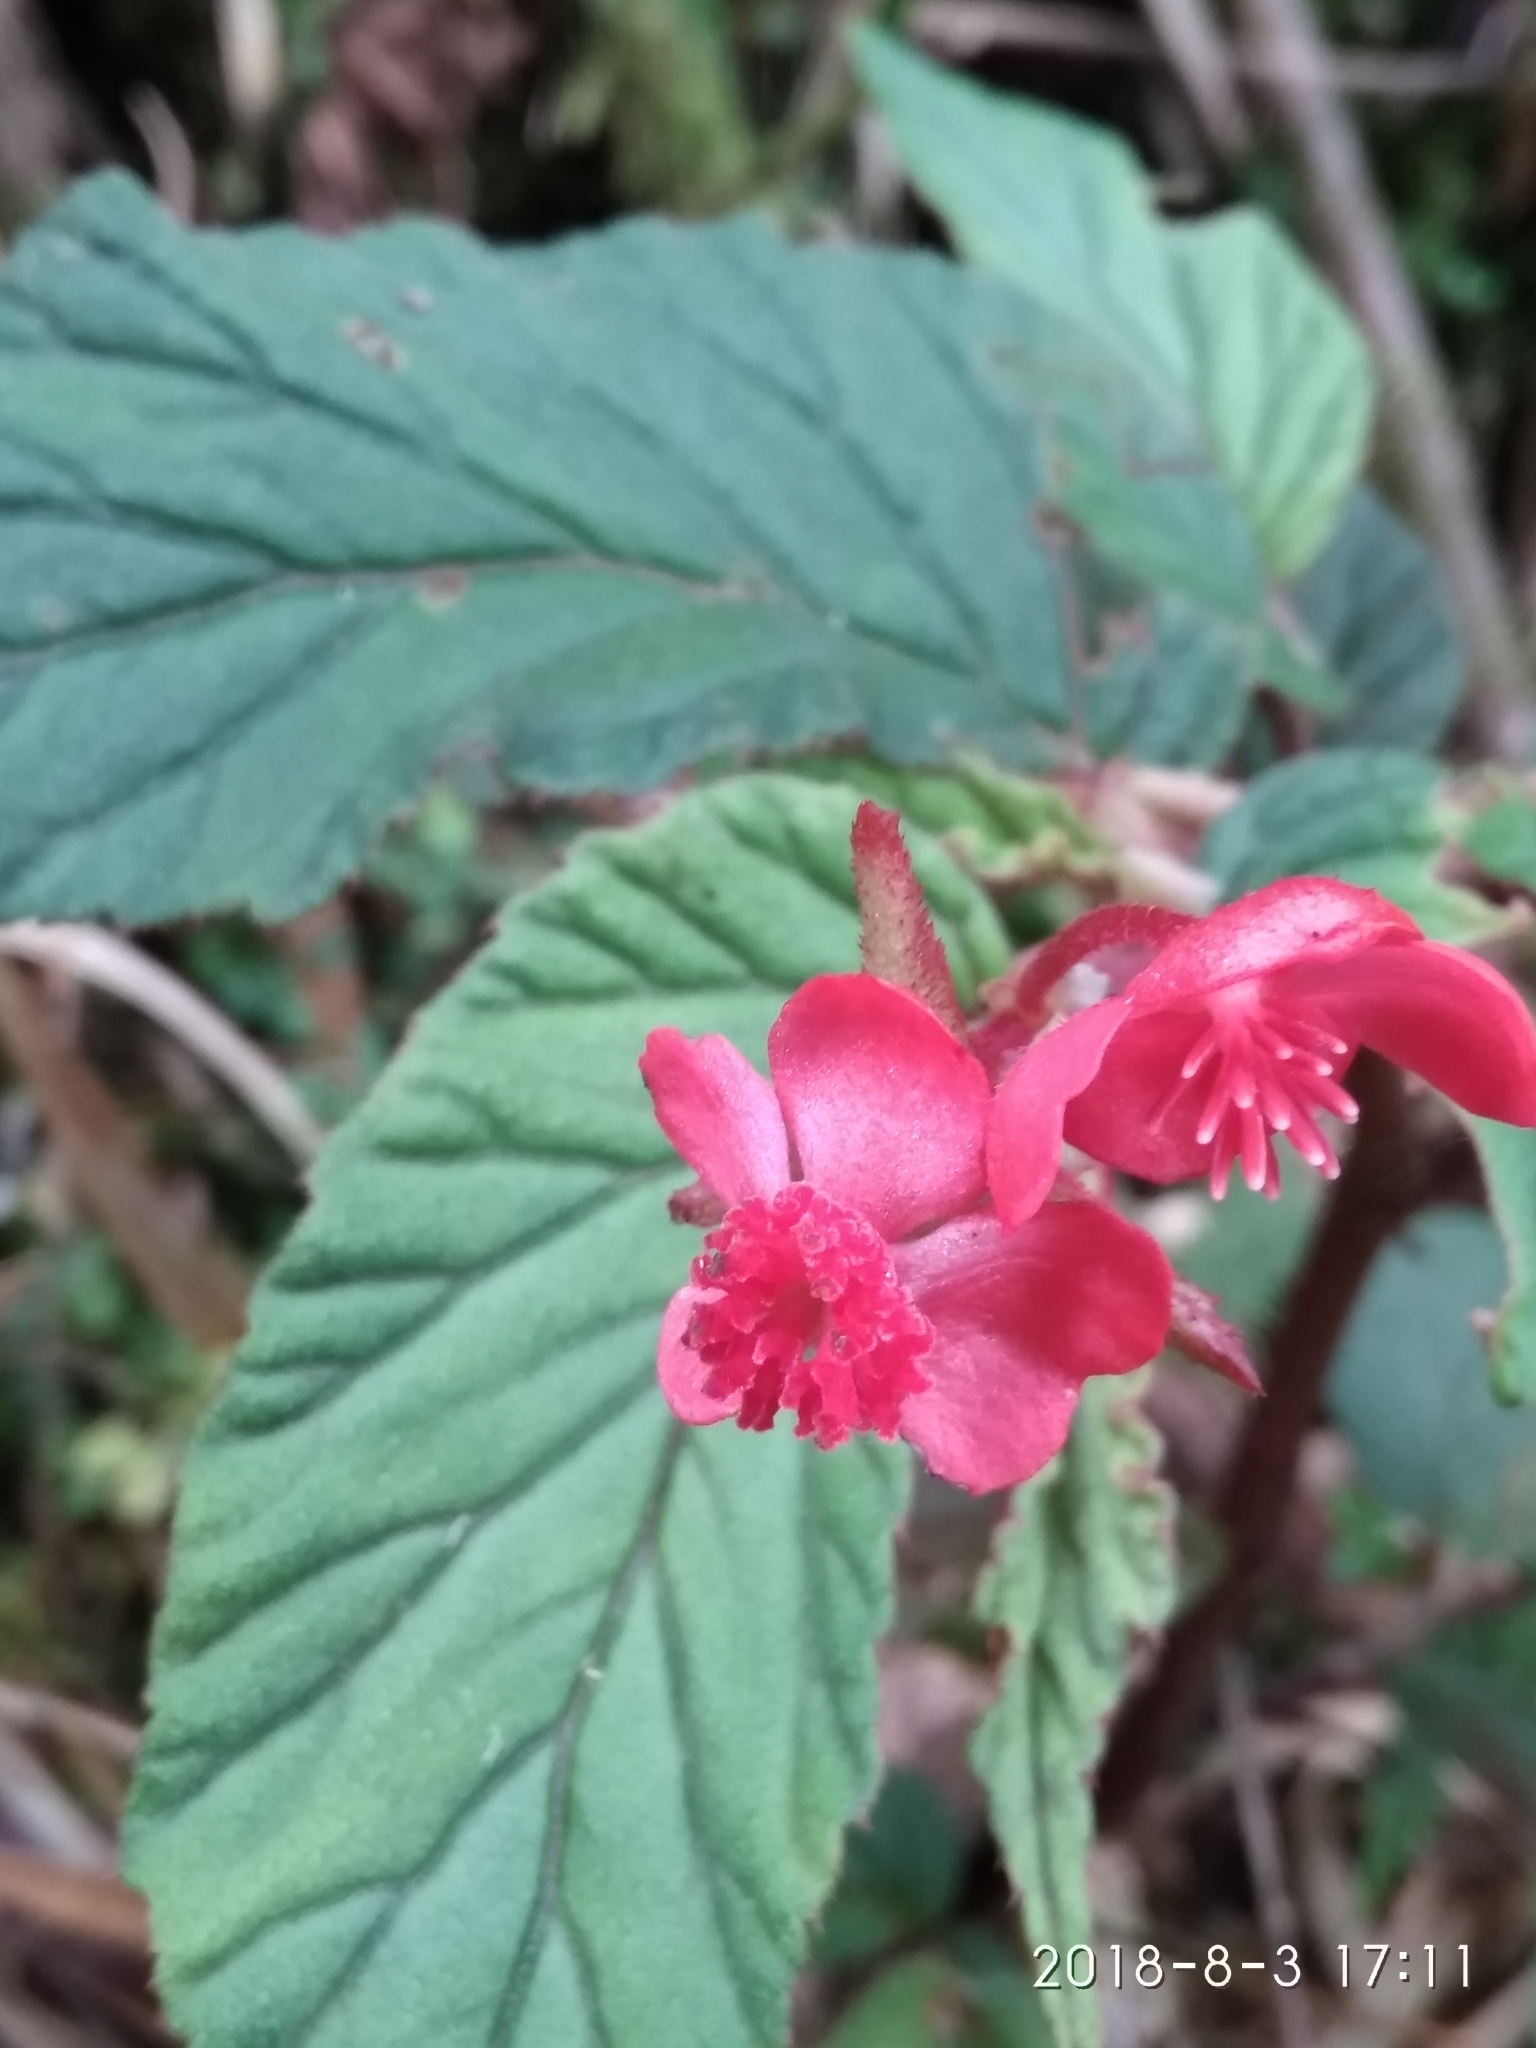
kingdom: Plantae
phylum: Tracheophyta
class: Magnoliopsida
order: Cucurbitales
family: Begoniaceae
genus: Begonia
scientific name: Begonia urticae
